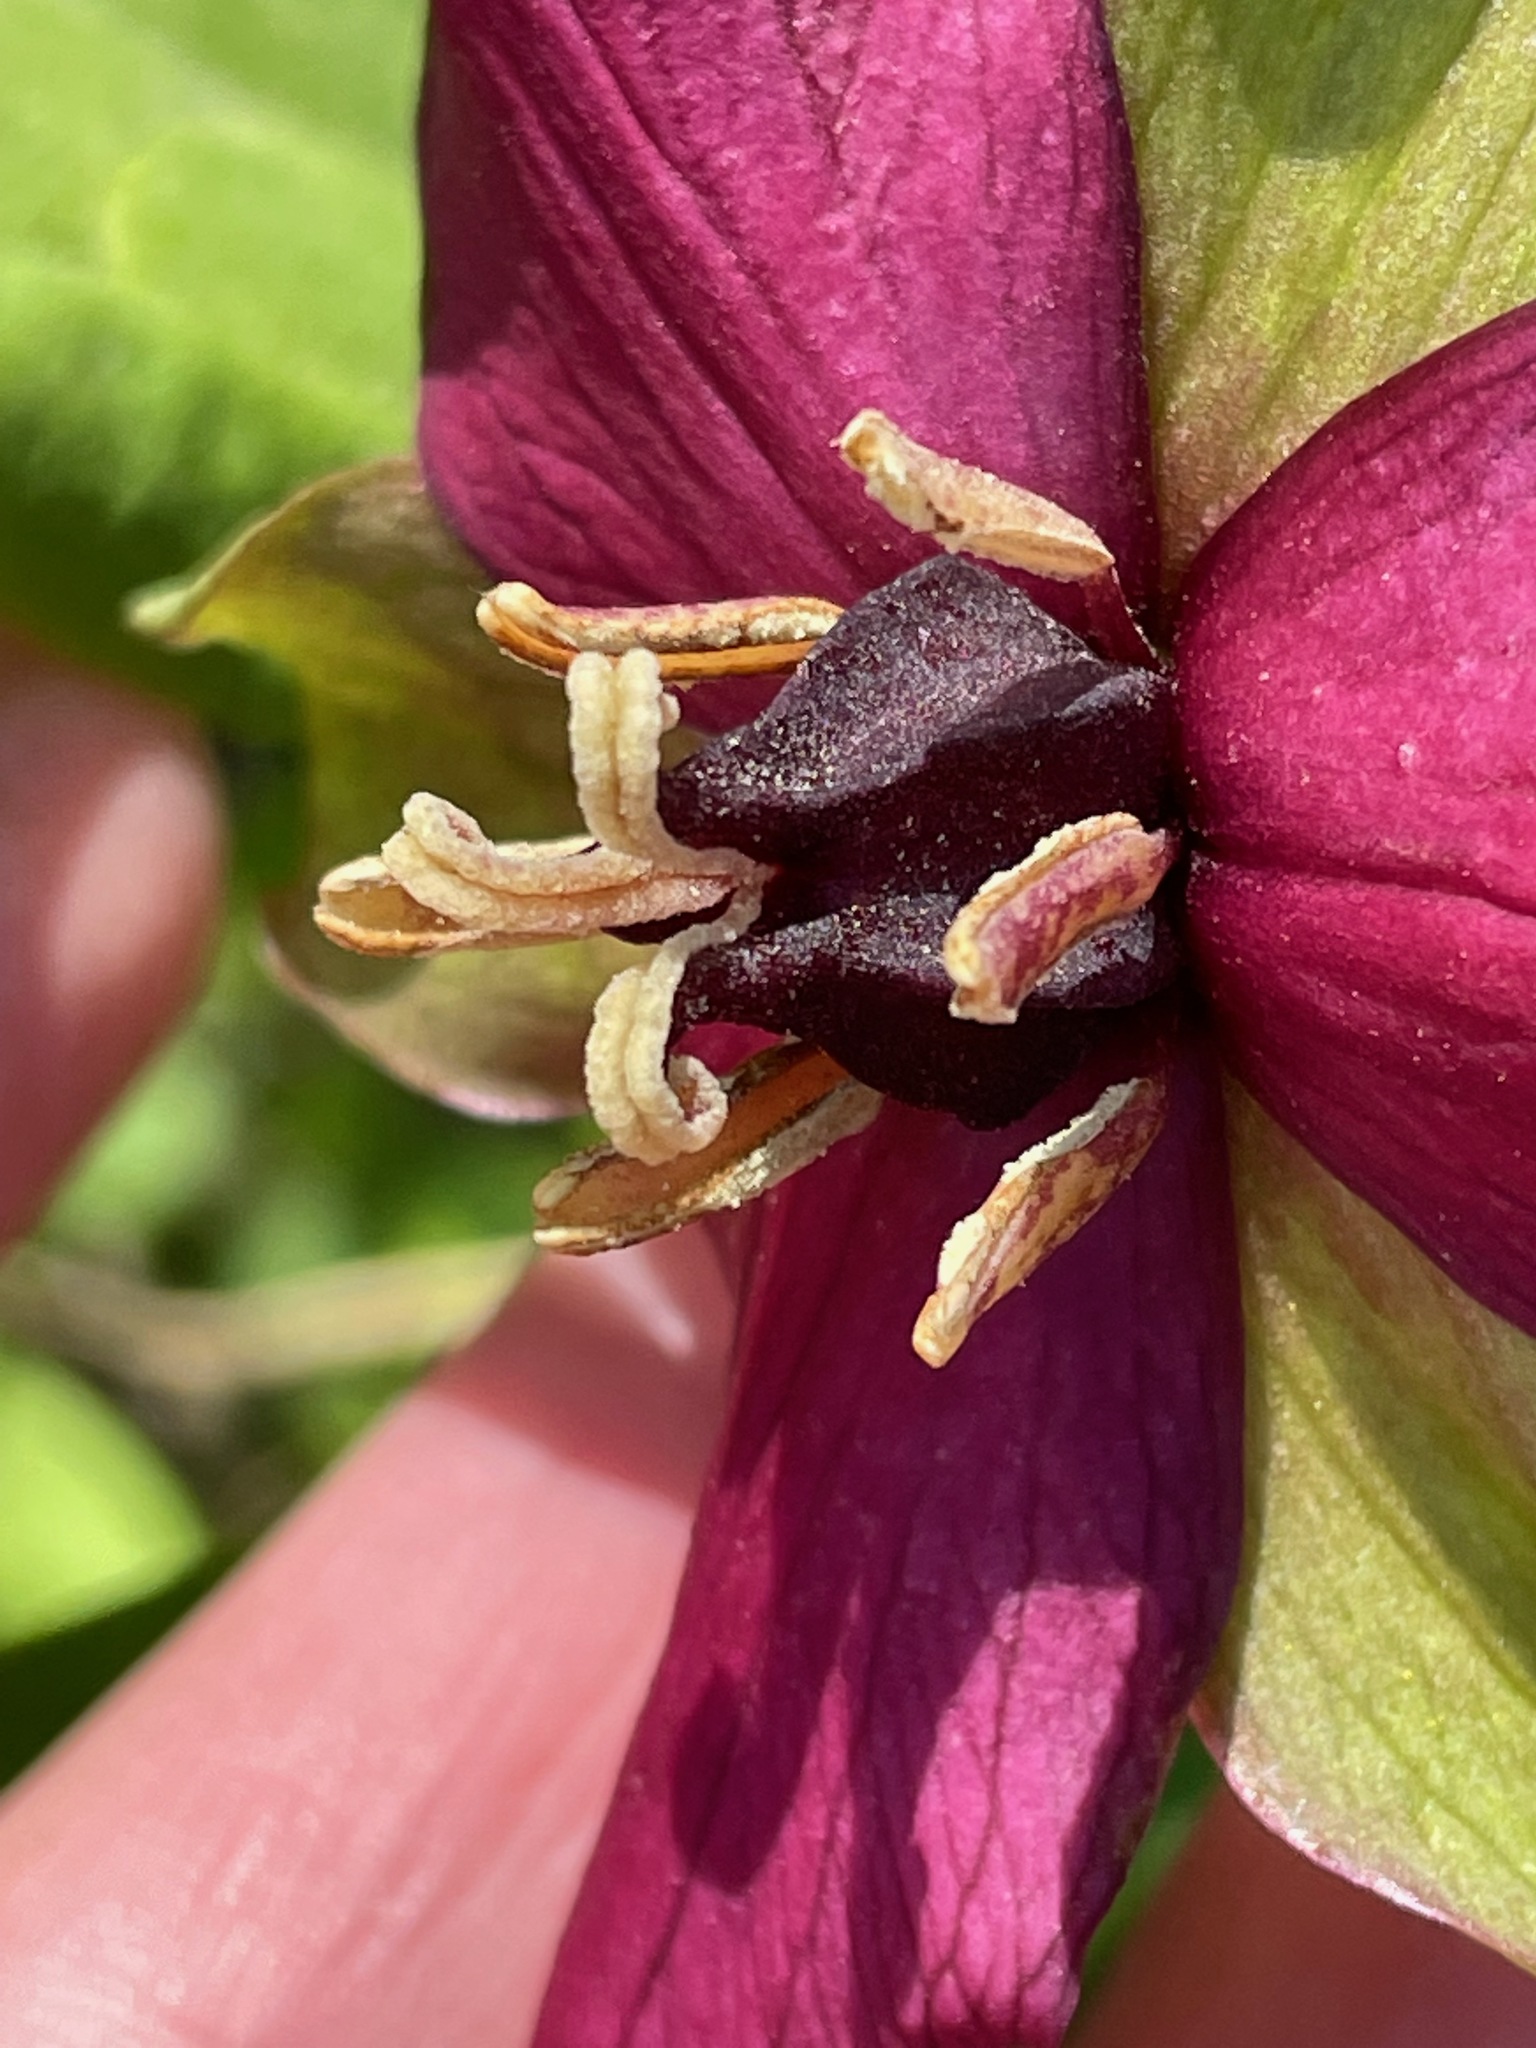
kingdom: Plantae
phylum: Tracheophyta
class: Liliopsida
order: Liliales
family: Melanthiaceae
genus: Trillium
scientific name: Trillium erectum
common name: Purple trillium
